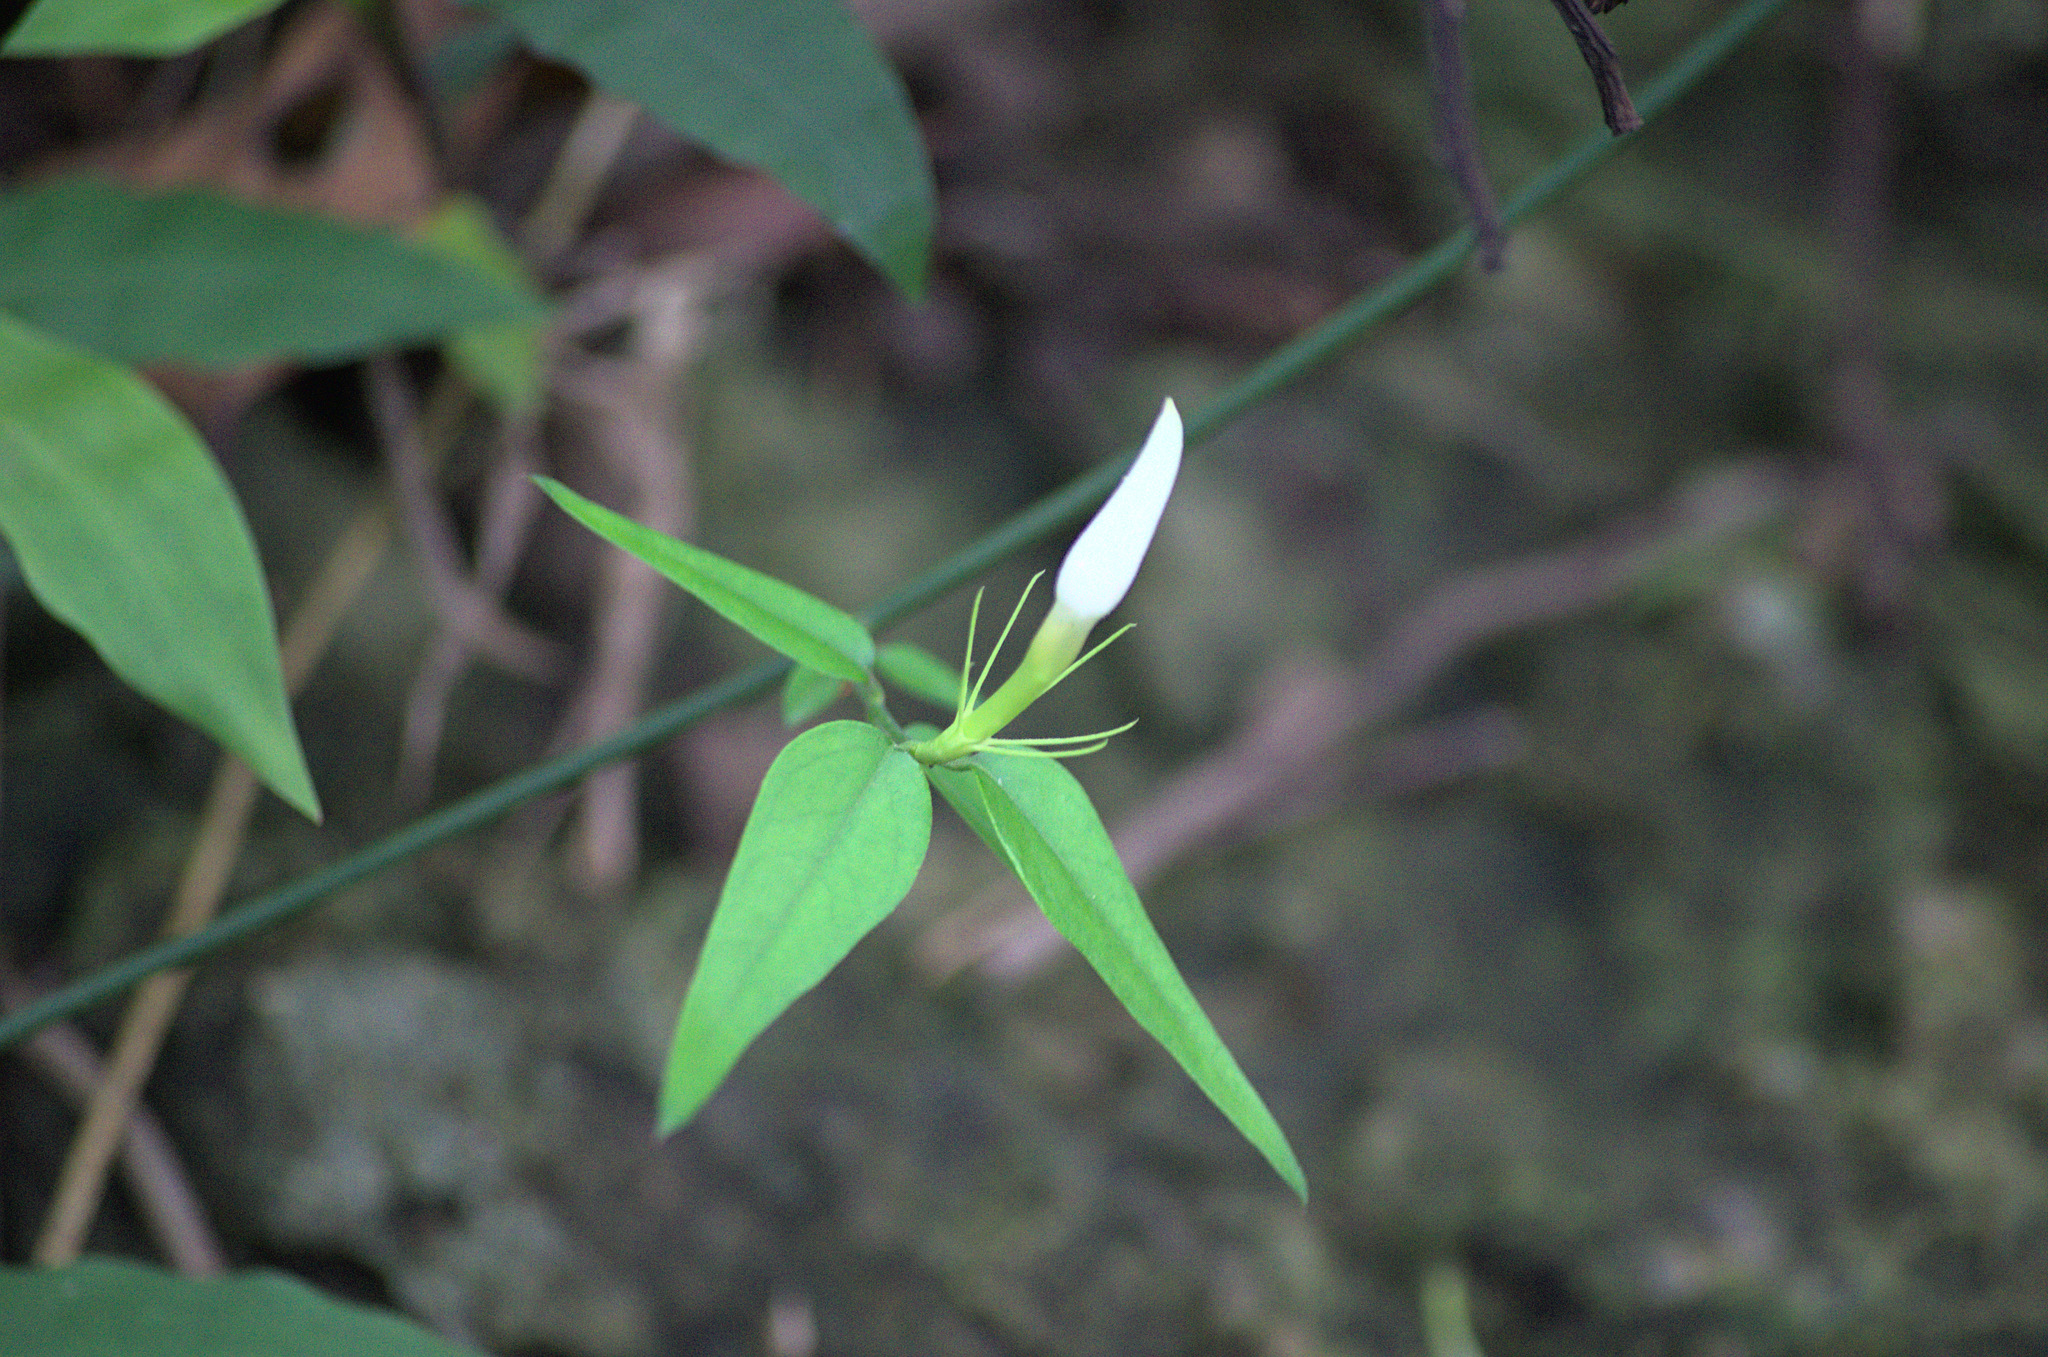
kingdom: Plantae
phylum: Tracheophyta
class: Magnoliopsida
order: Lamiales
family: Oleaceae
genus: Jasminum
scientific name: Jasminum nervosum
